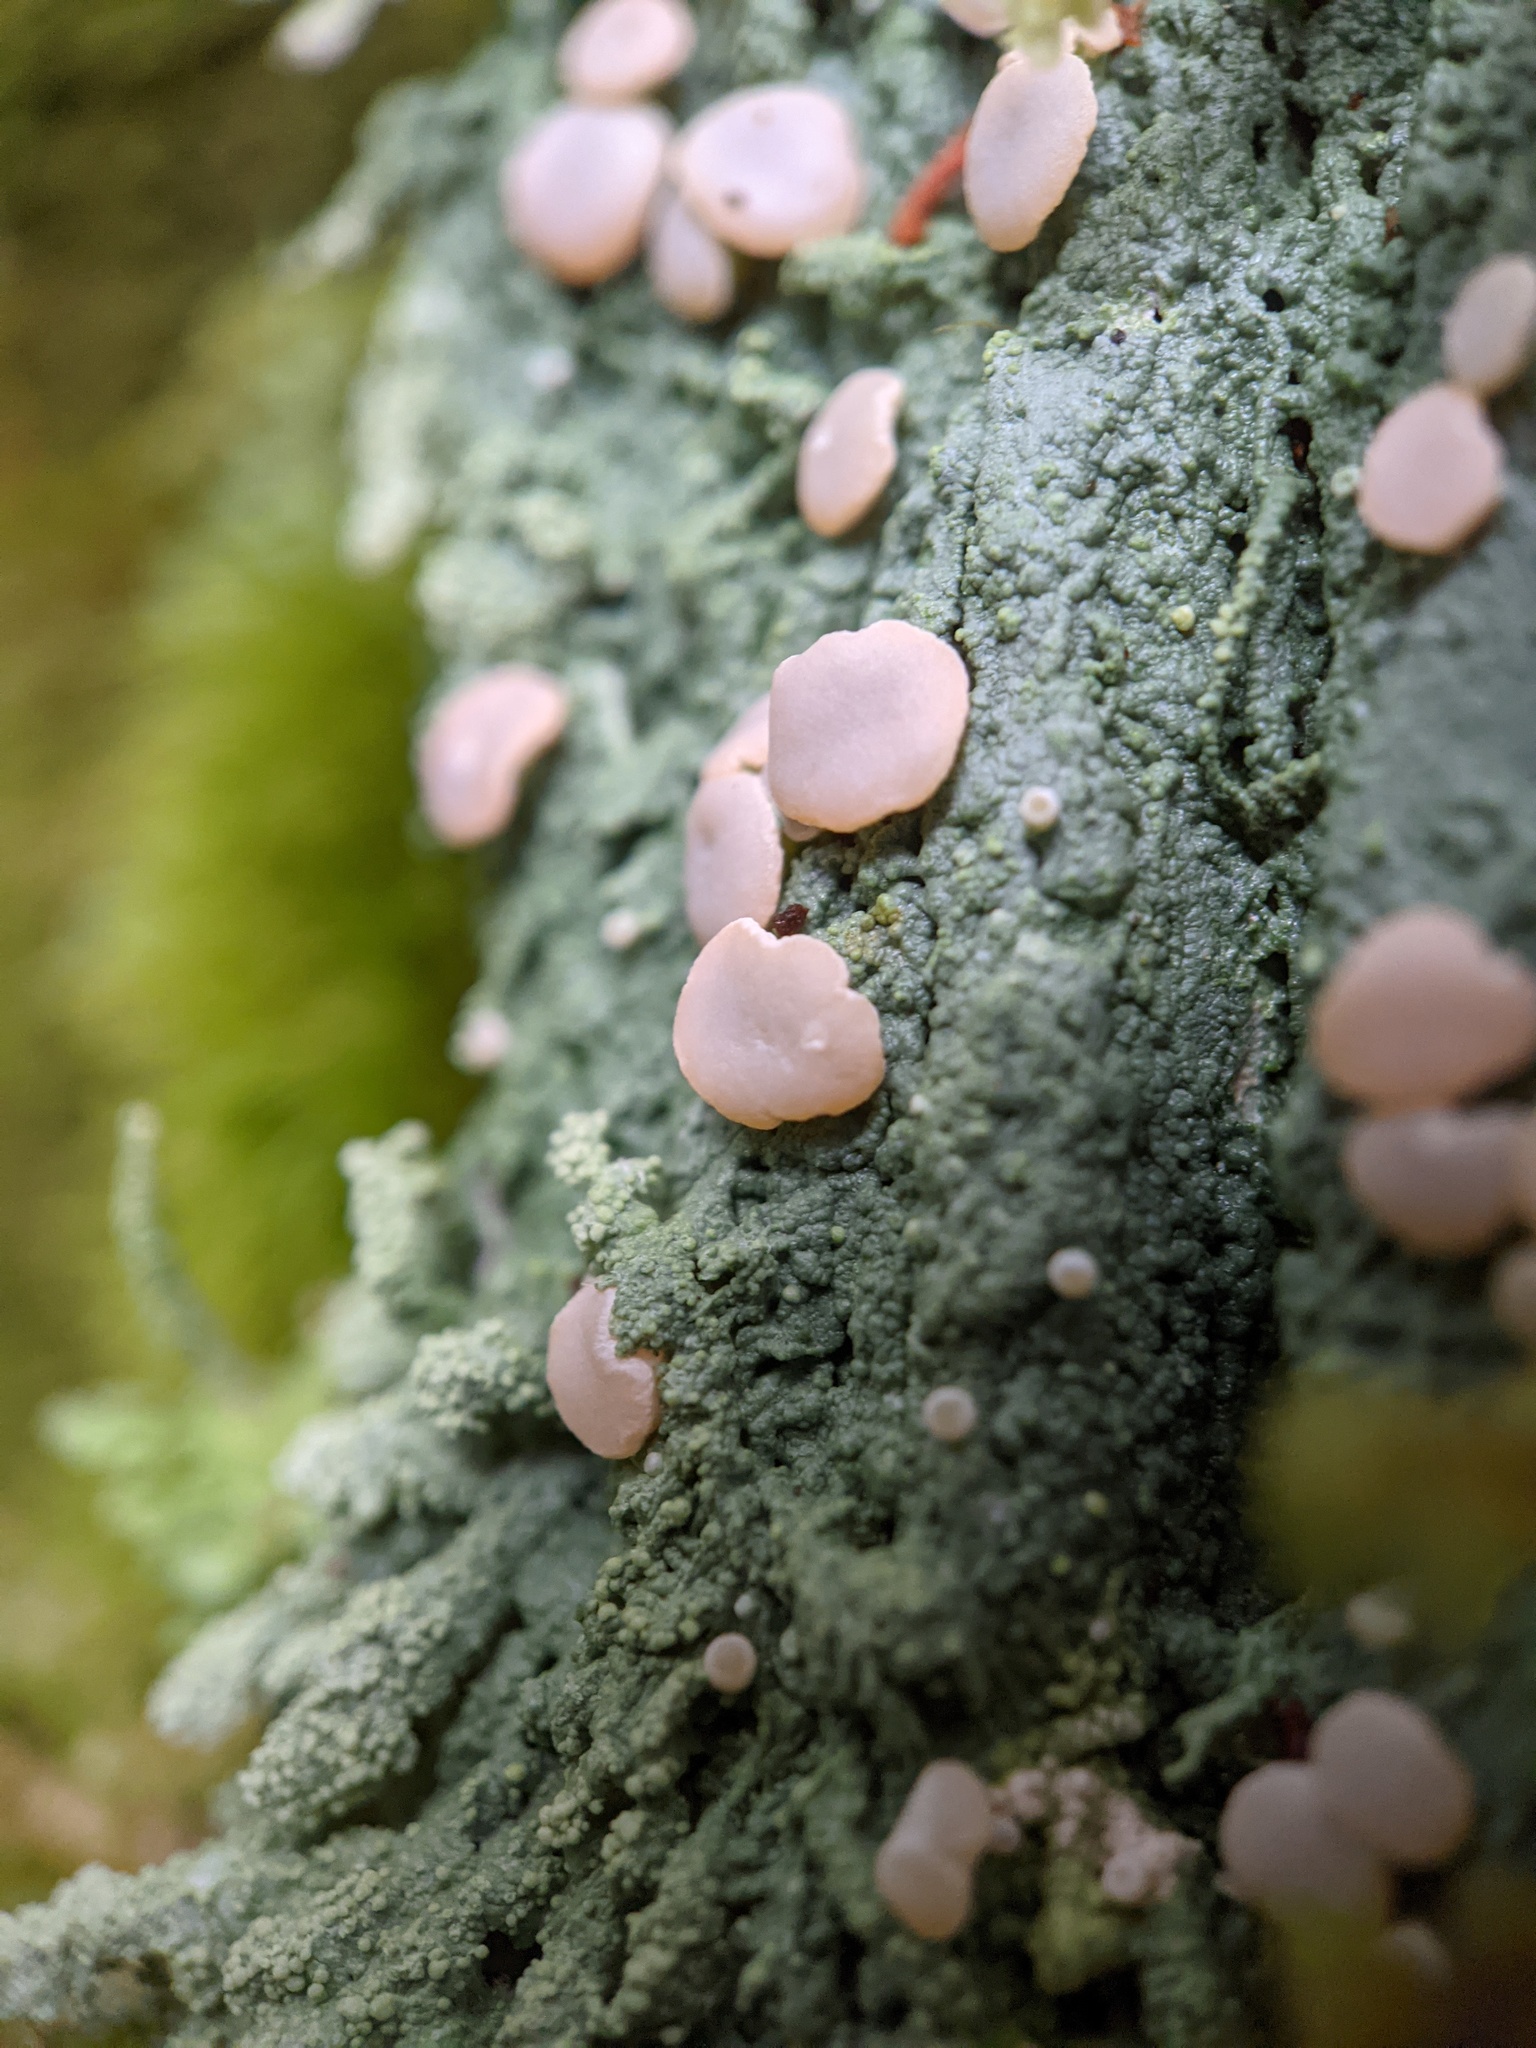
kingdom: Fungi
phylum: Ascomycota
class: Lecanoromycetes
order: Pertusariales
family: Icmadophilaceae
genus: Icmadophila
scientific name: Icmadophila ericetorum
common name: Candy lichen
